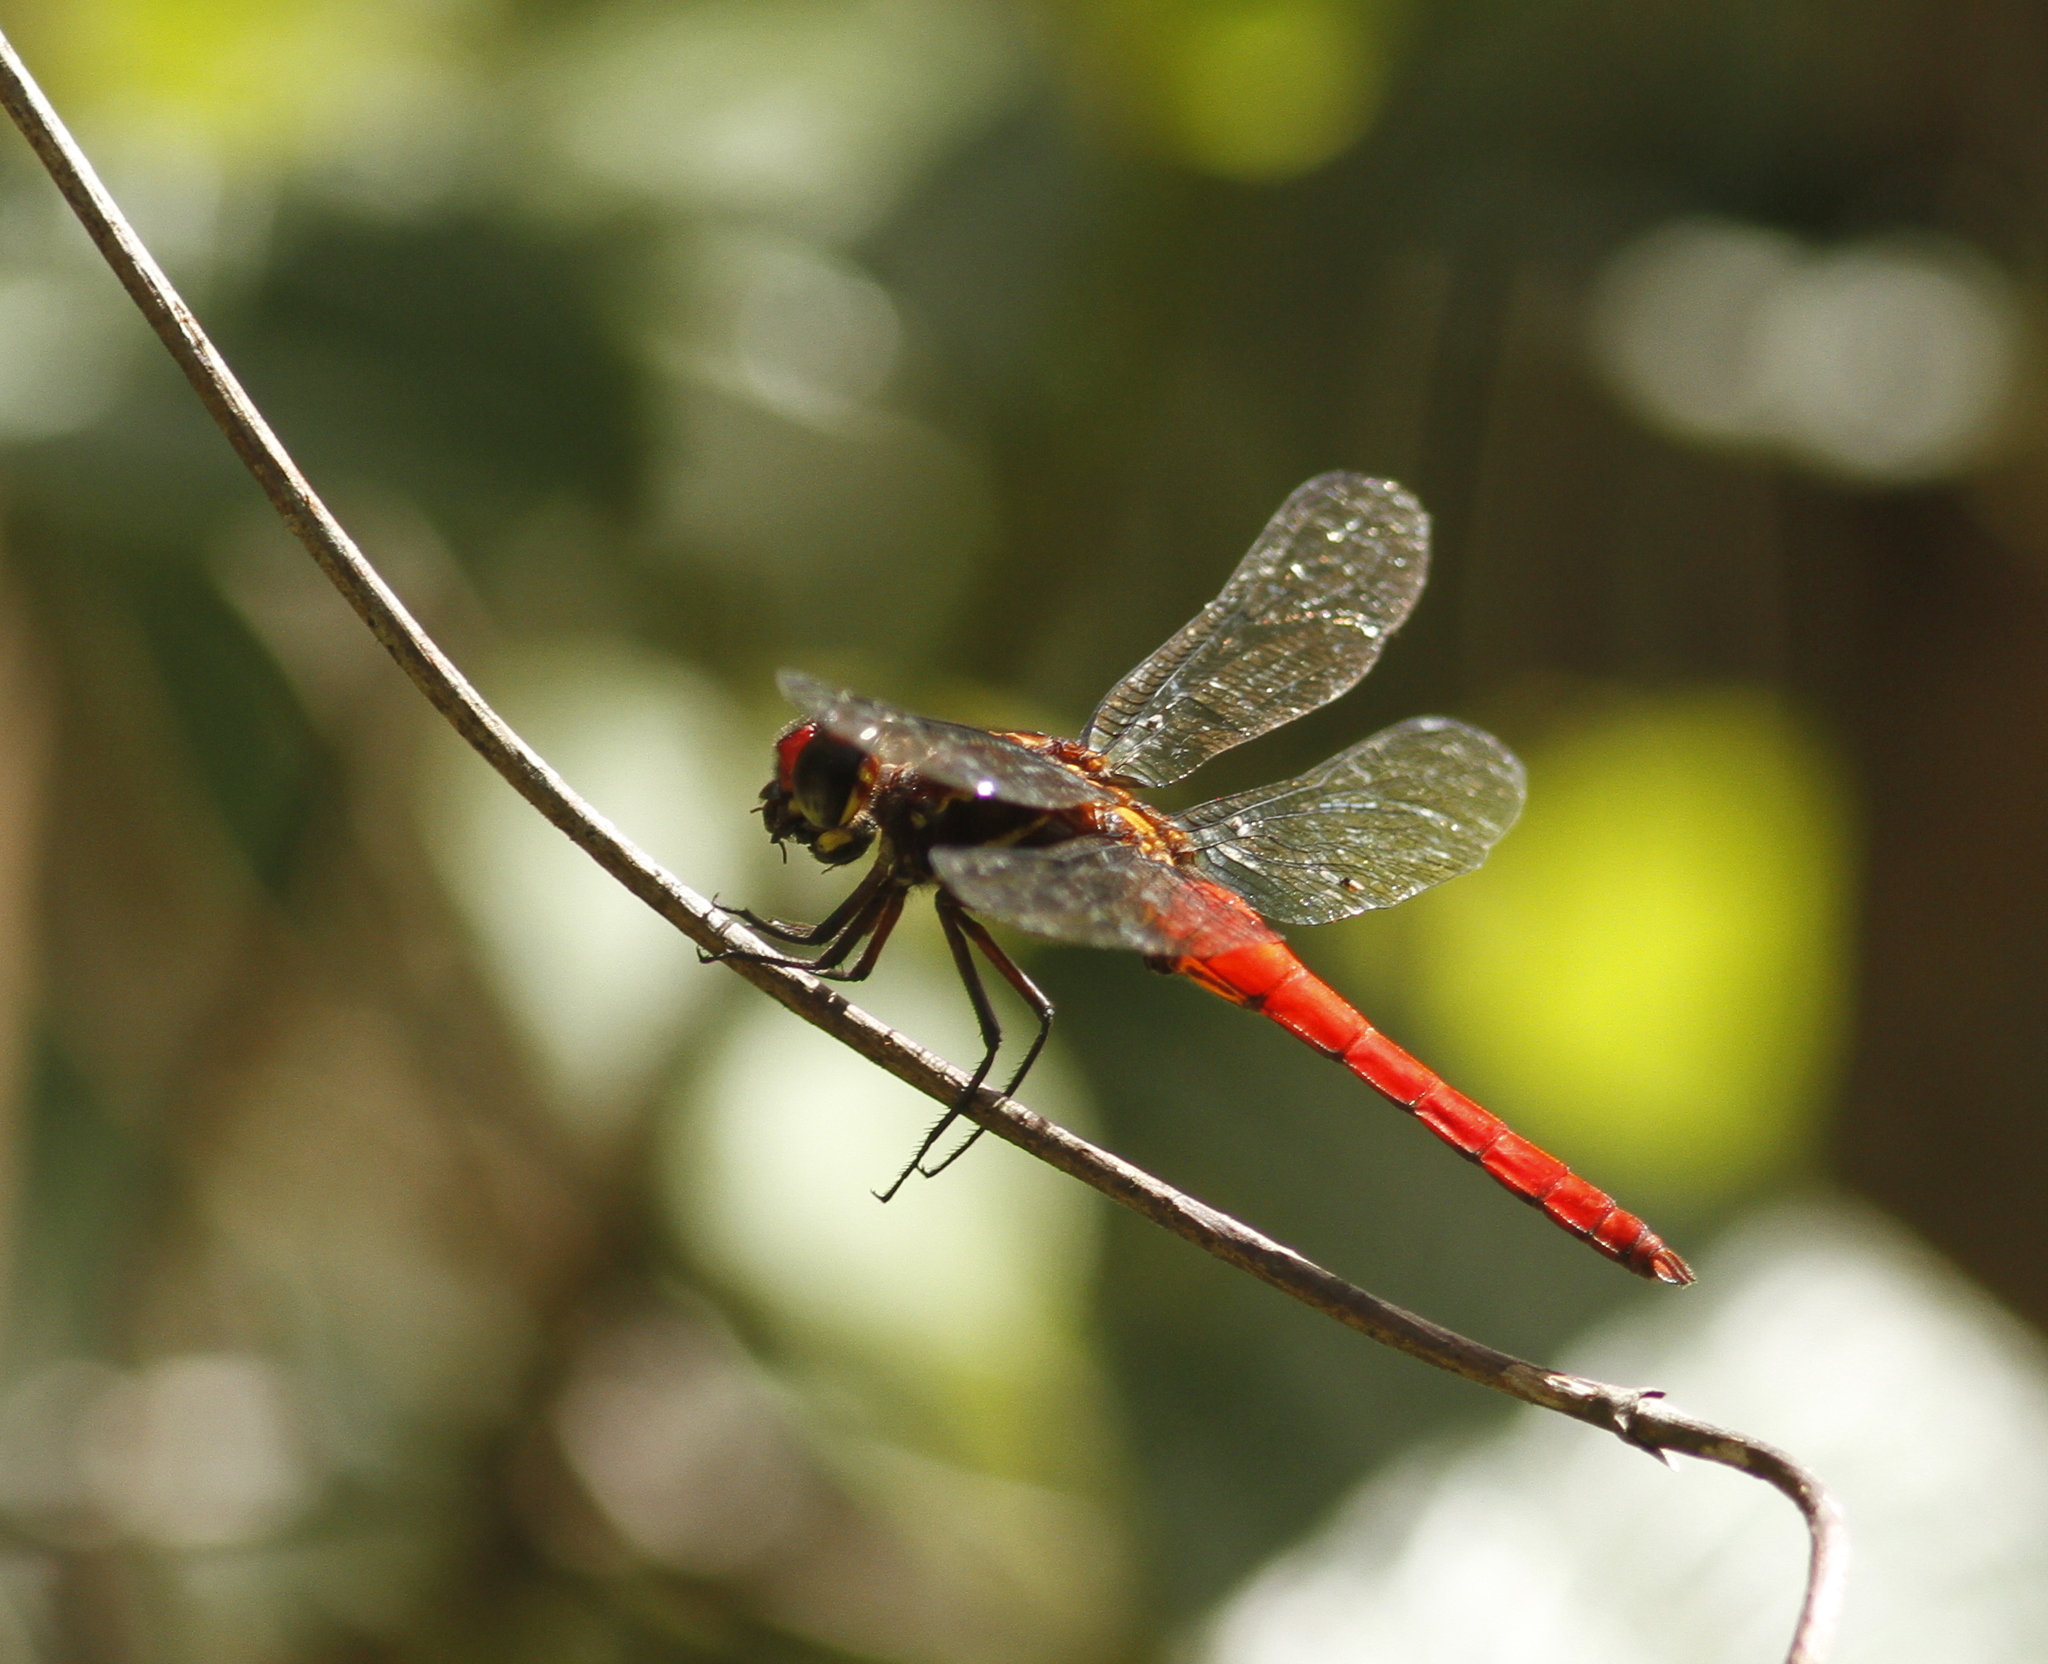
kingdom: Animalia
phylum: Arthropoda
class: Insecta
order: Odonata
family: Libellulidae
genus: Orthemis
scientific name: Orthemis biolleyi
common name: Yellow-lined skimmer
